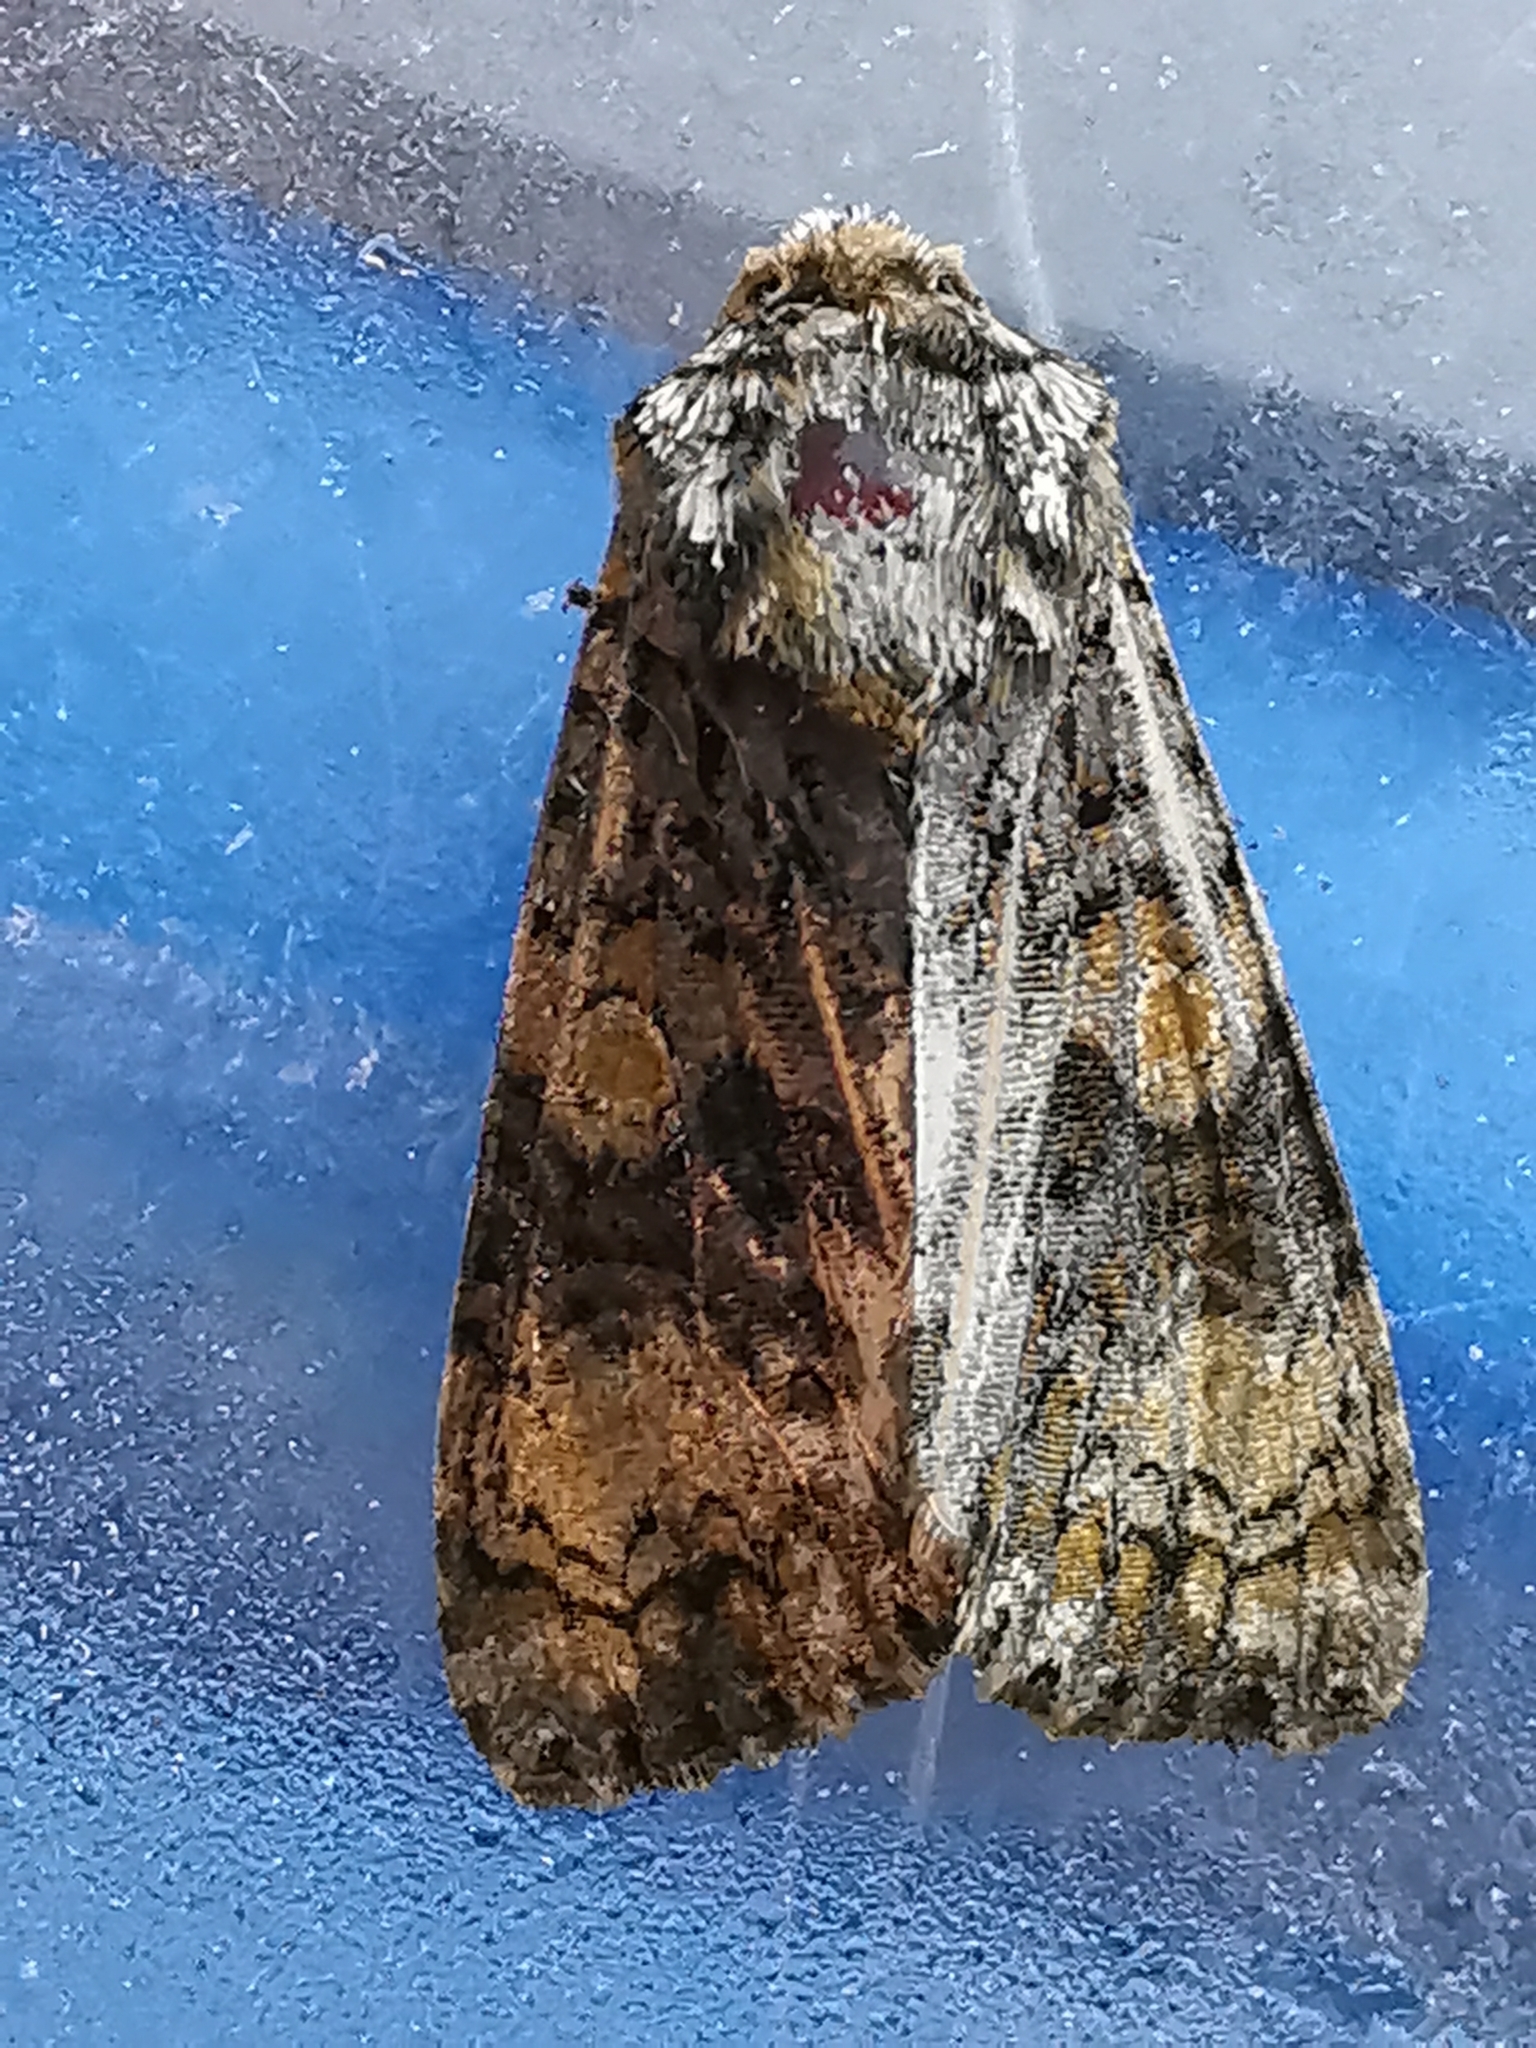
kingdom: Animalia
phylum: Arthropoda
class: Insecta
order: Lepidoptera
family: Noctuidae
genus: Craniophora
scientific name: Craniophora ligustri
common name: Coronet
